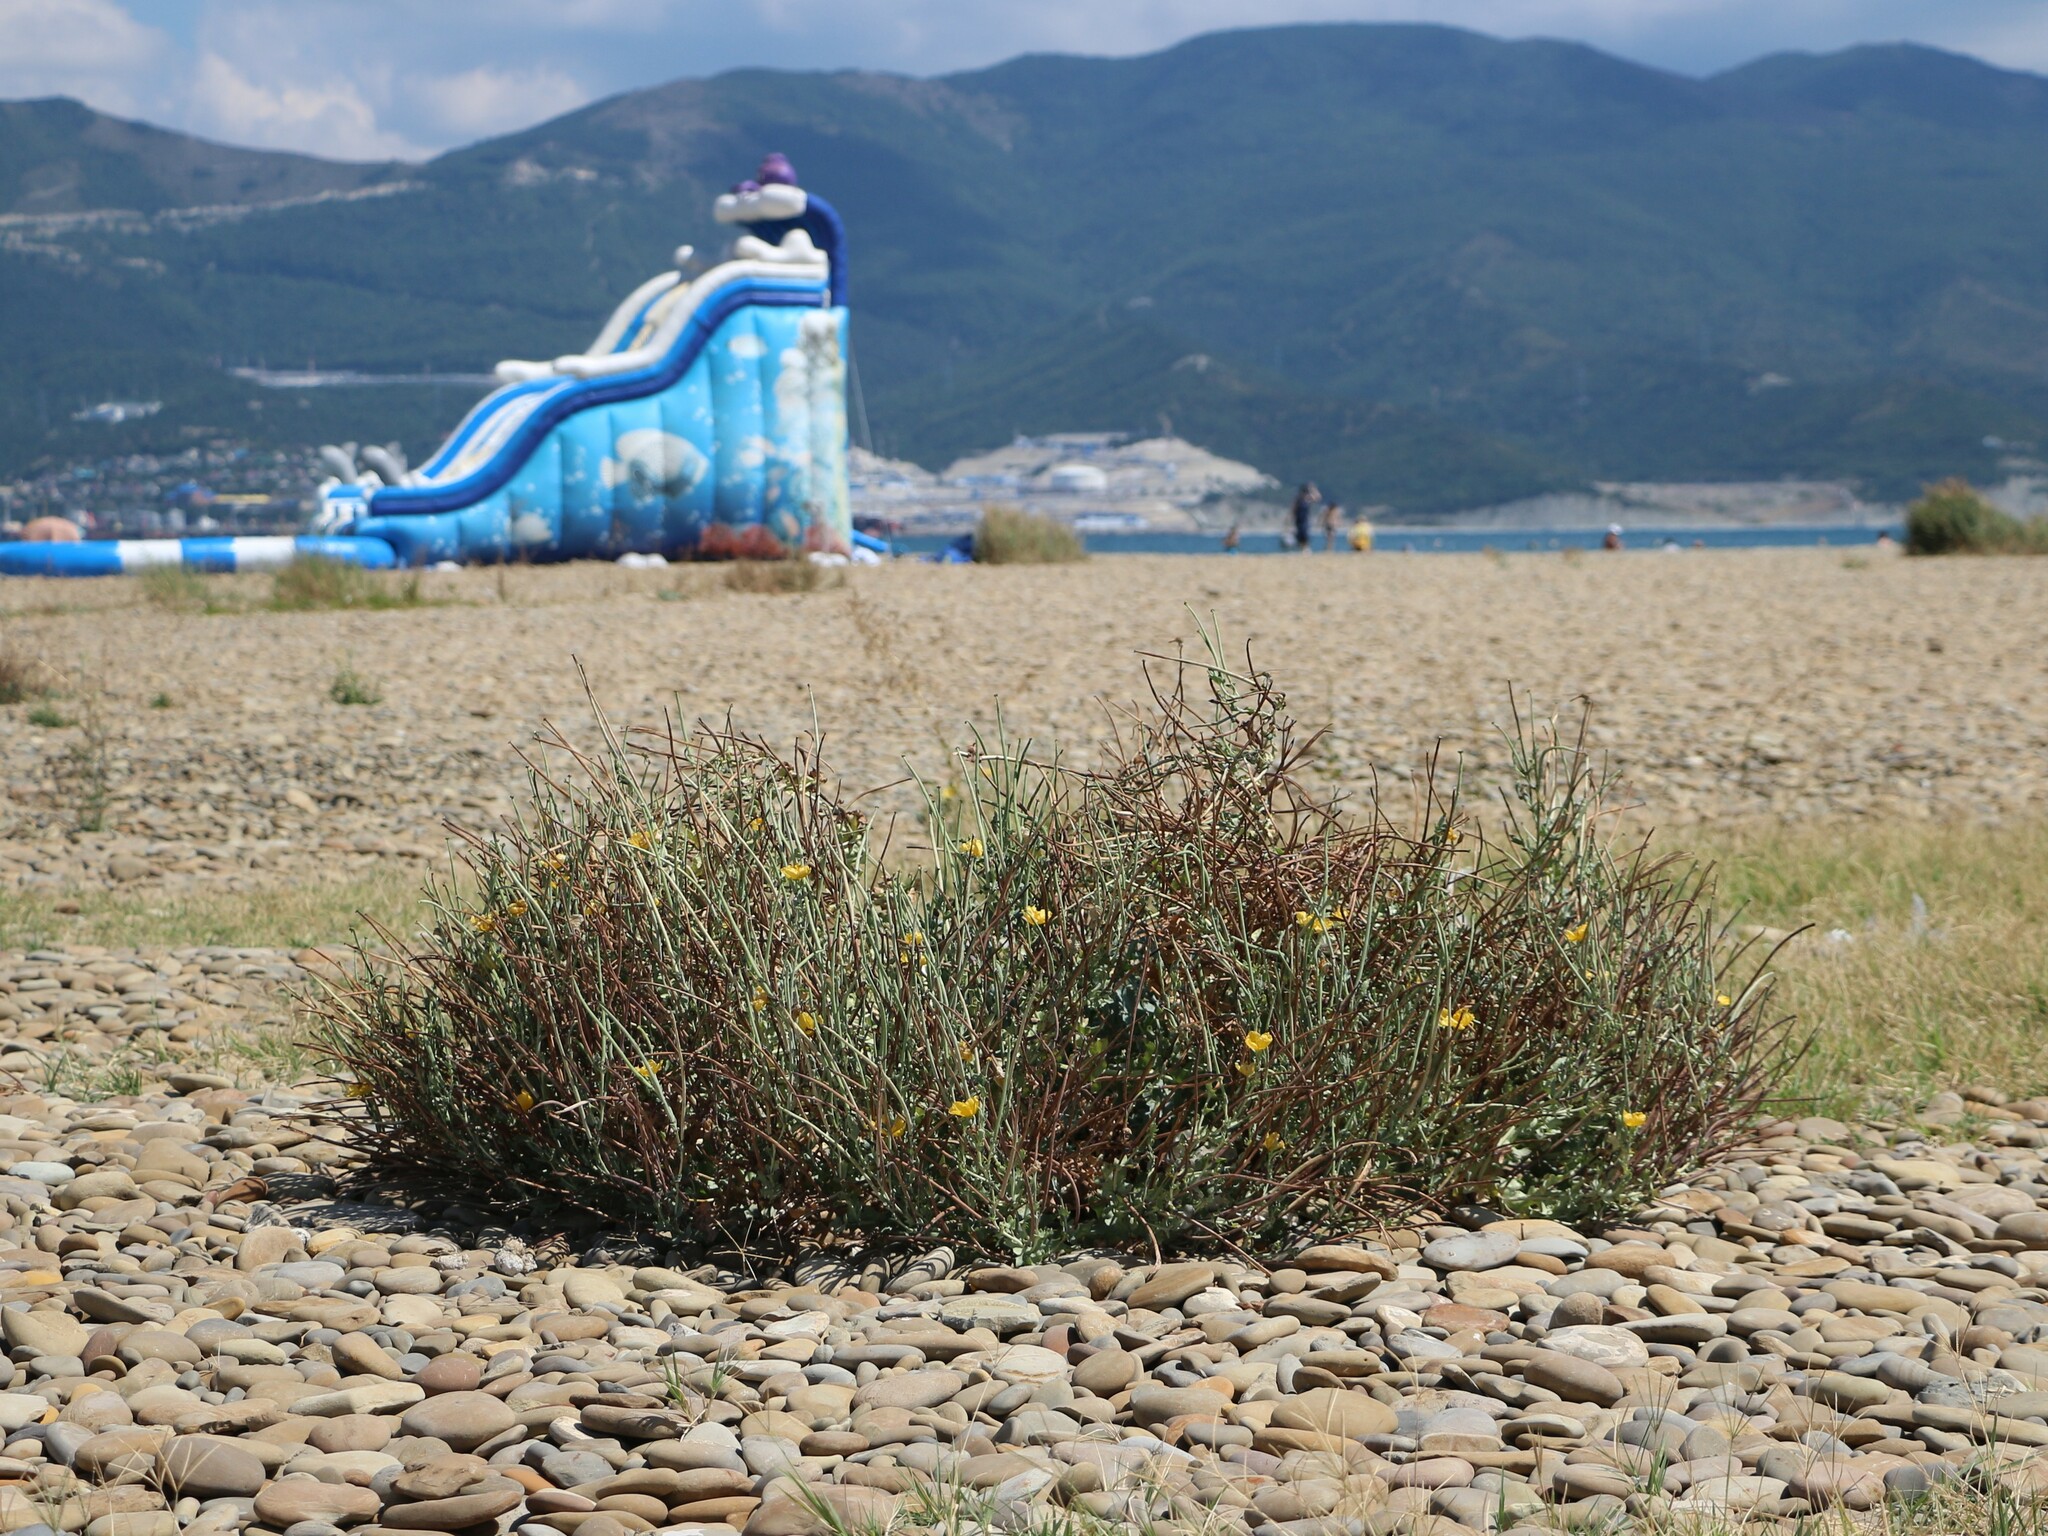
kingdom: Plantae
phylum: Tracheophyta
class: Magnoliopsida
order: Ranunculales
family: Papaveraceae
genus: Glaucium
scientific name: Glaucium flavum
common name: Yellow horned-poppy
